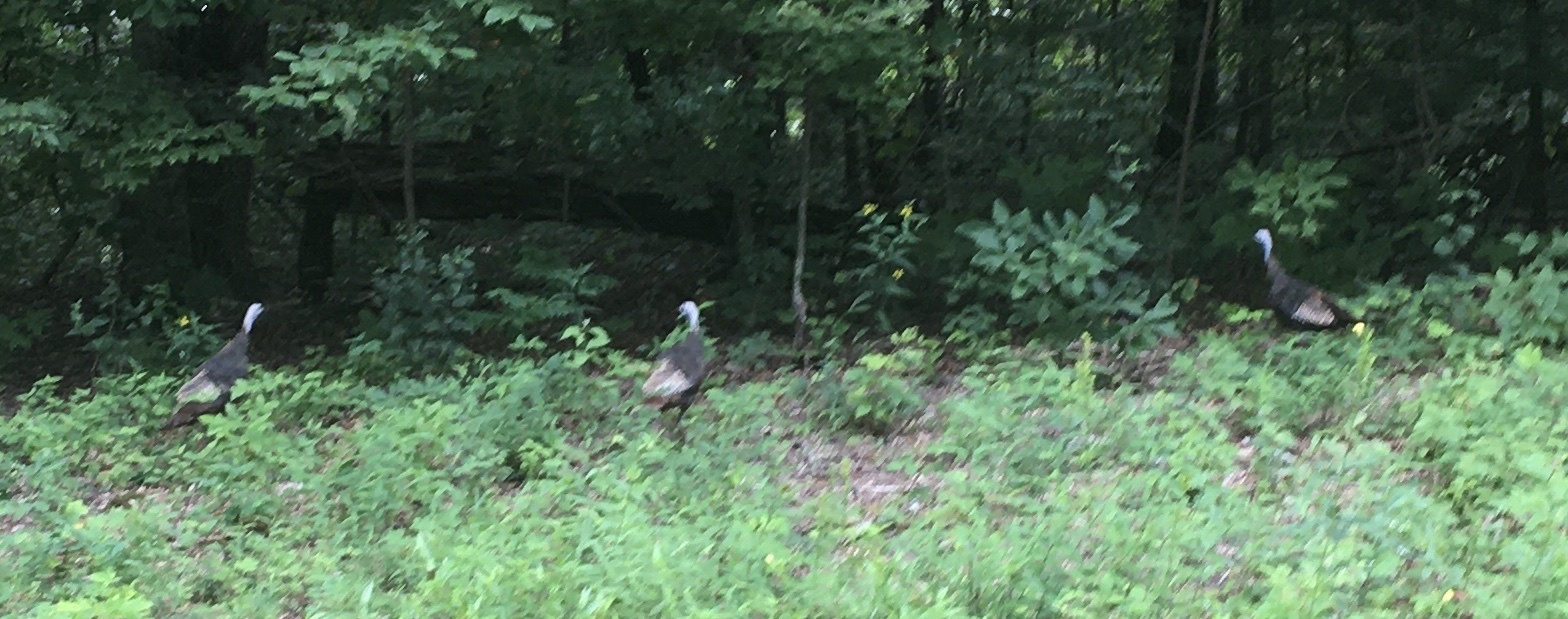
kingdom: Animalia
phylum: Chordata
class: Aves
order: Galliformes
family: Phasianidae
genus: Meleagris
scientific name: Meleagris gallopavo
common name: Wild turkey
